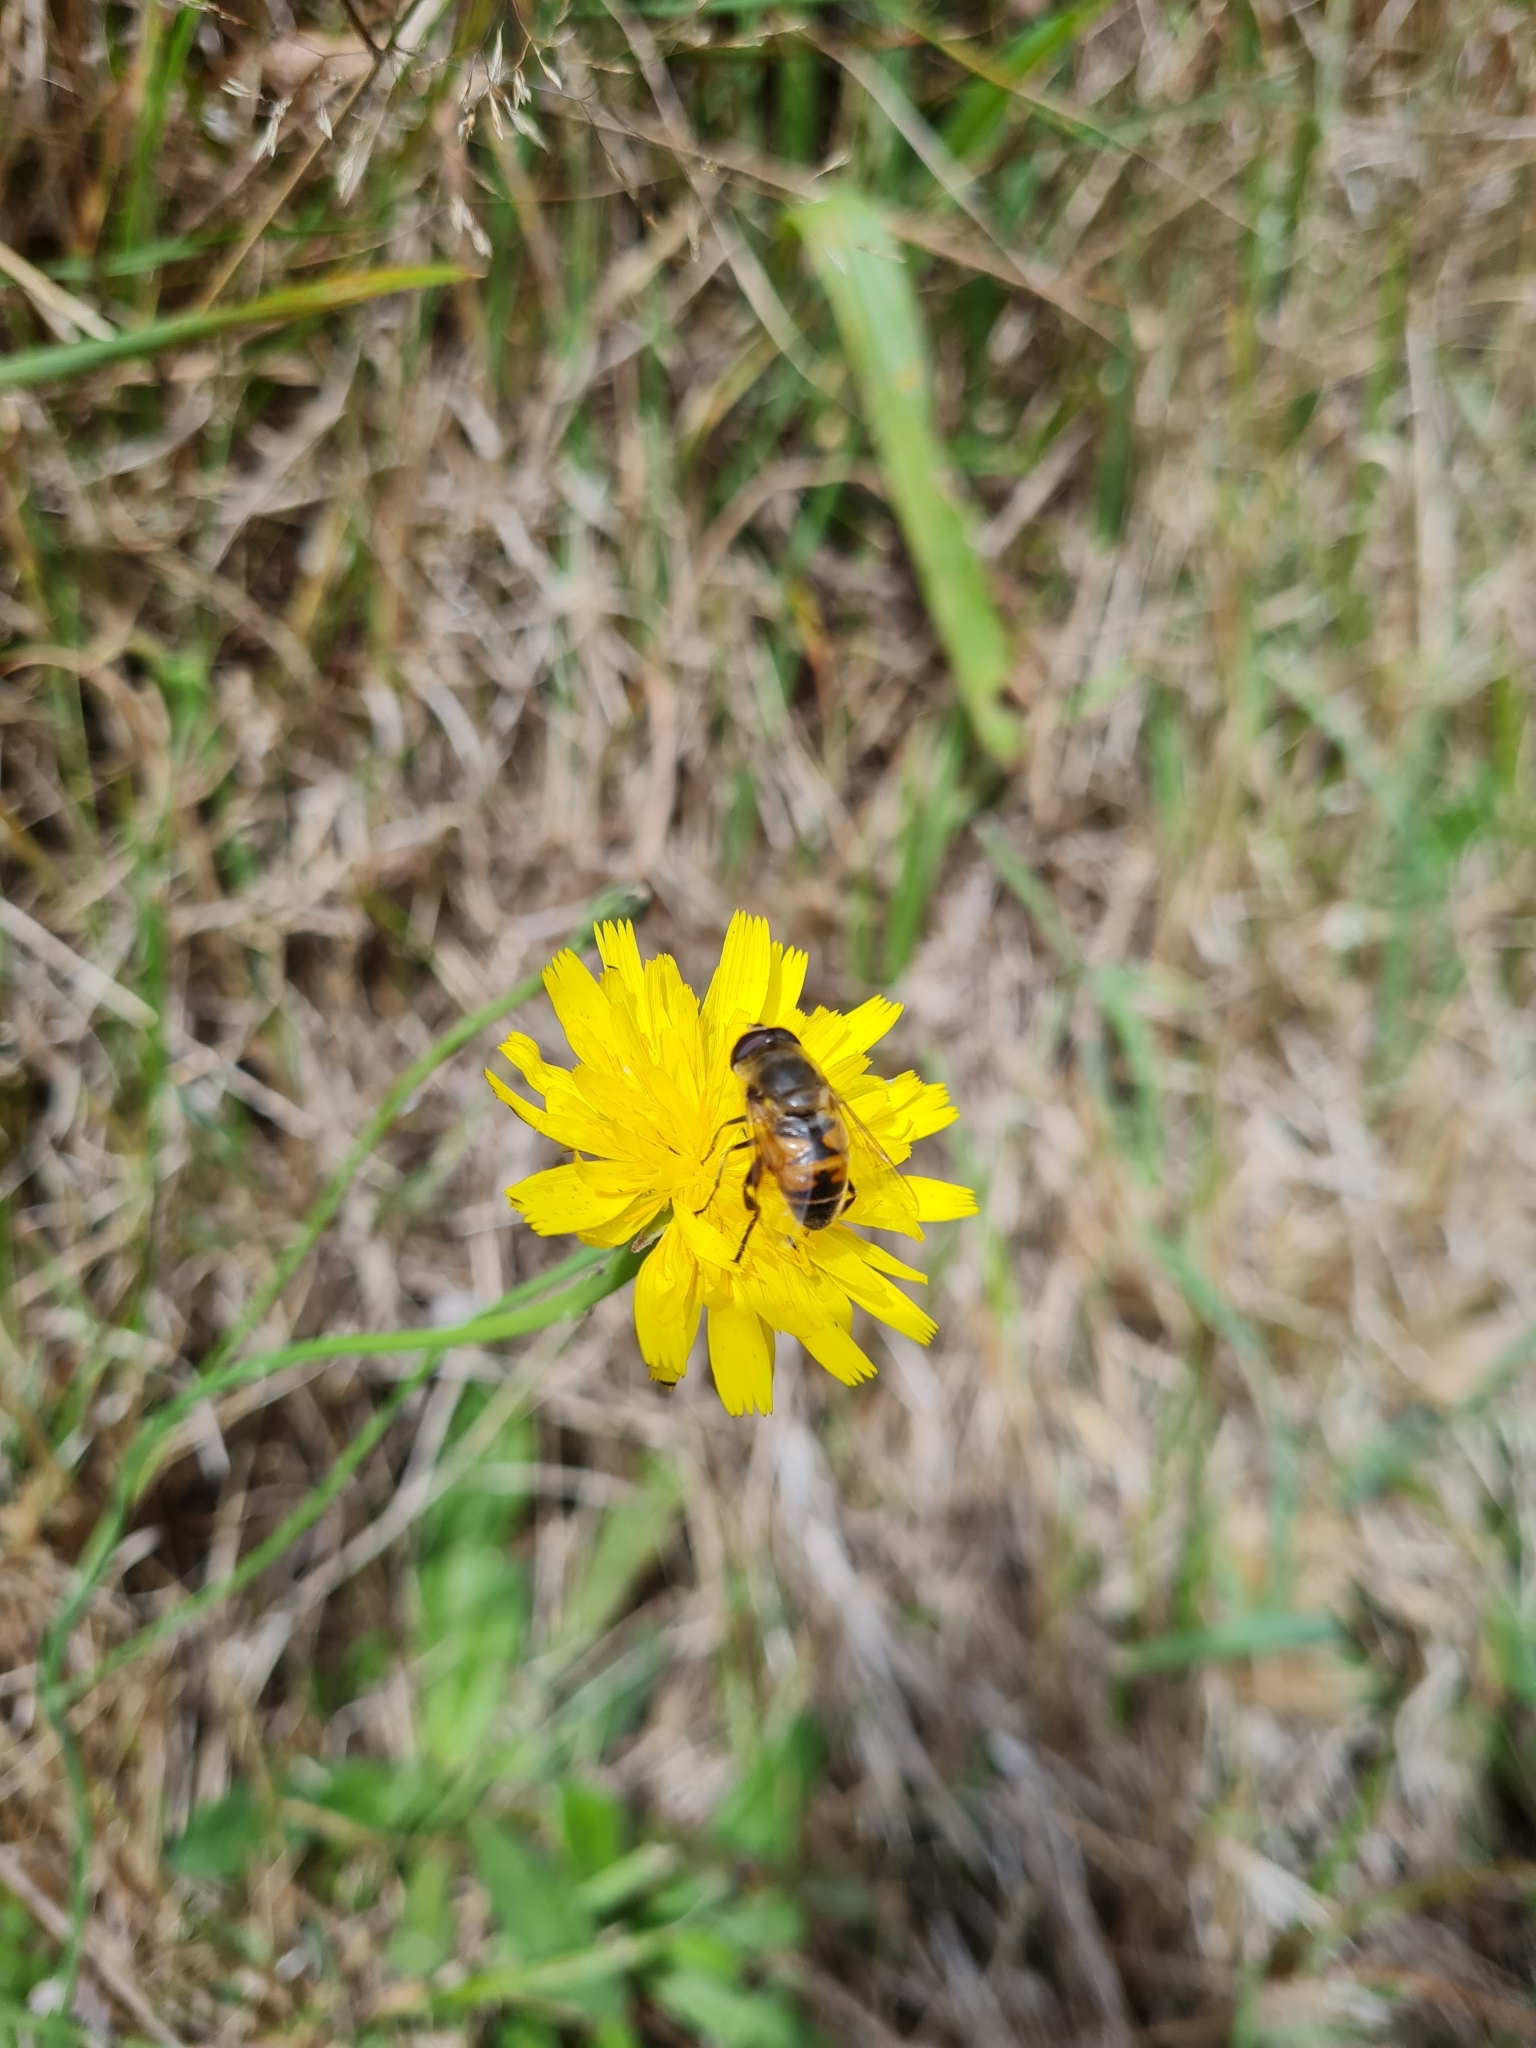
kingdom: Animalia
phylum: Arthropoda
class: Insecta
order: Diptera
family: Syrphidae
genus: Eristalis
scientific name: Eristalis tenax
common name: Drone fly
